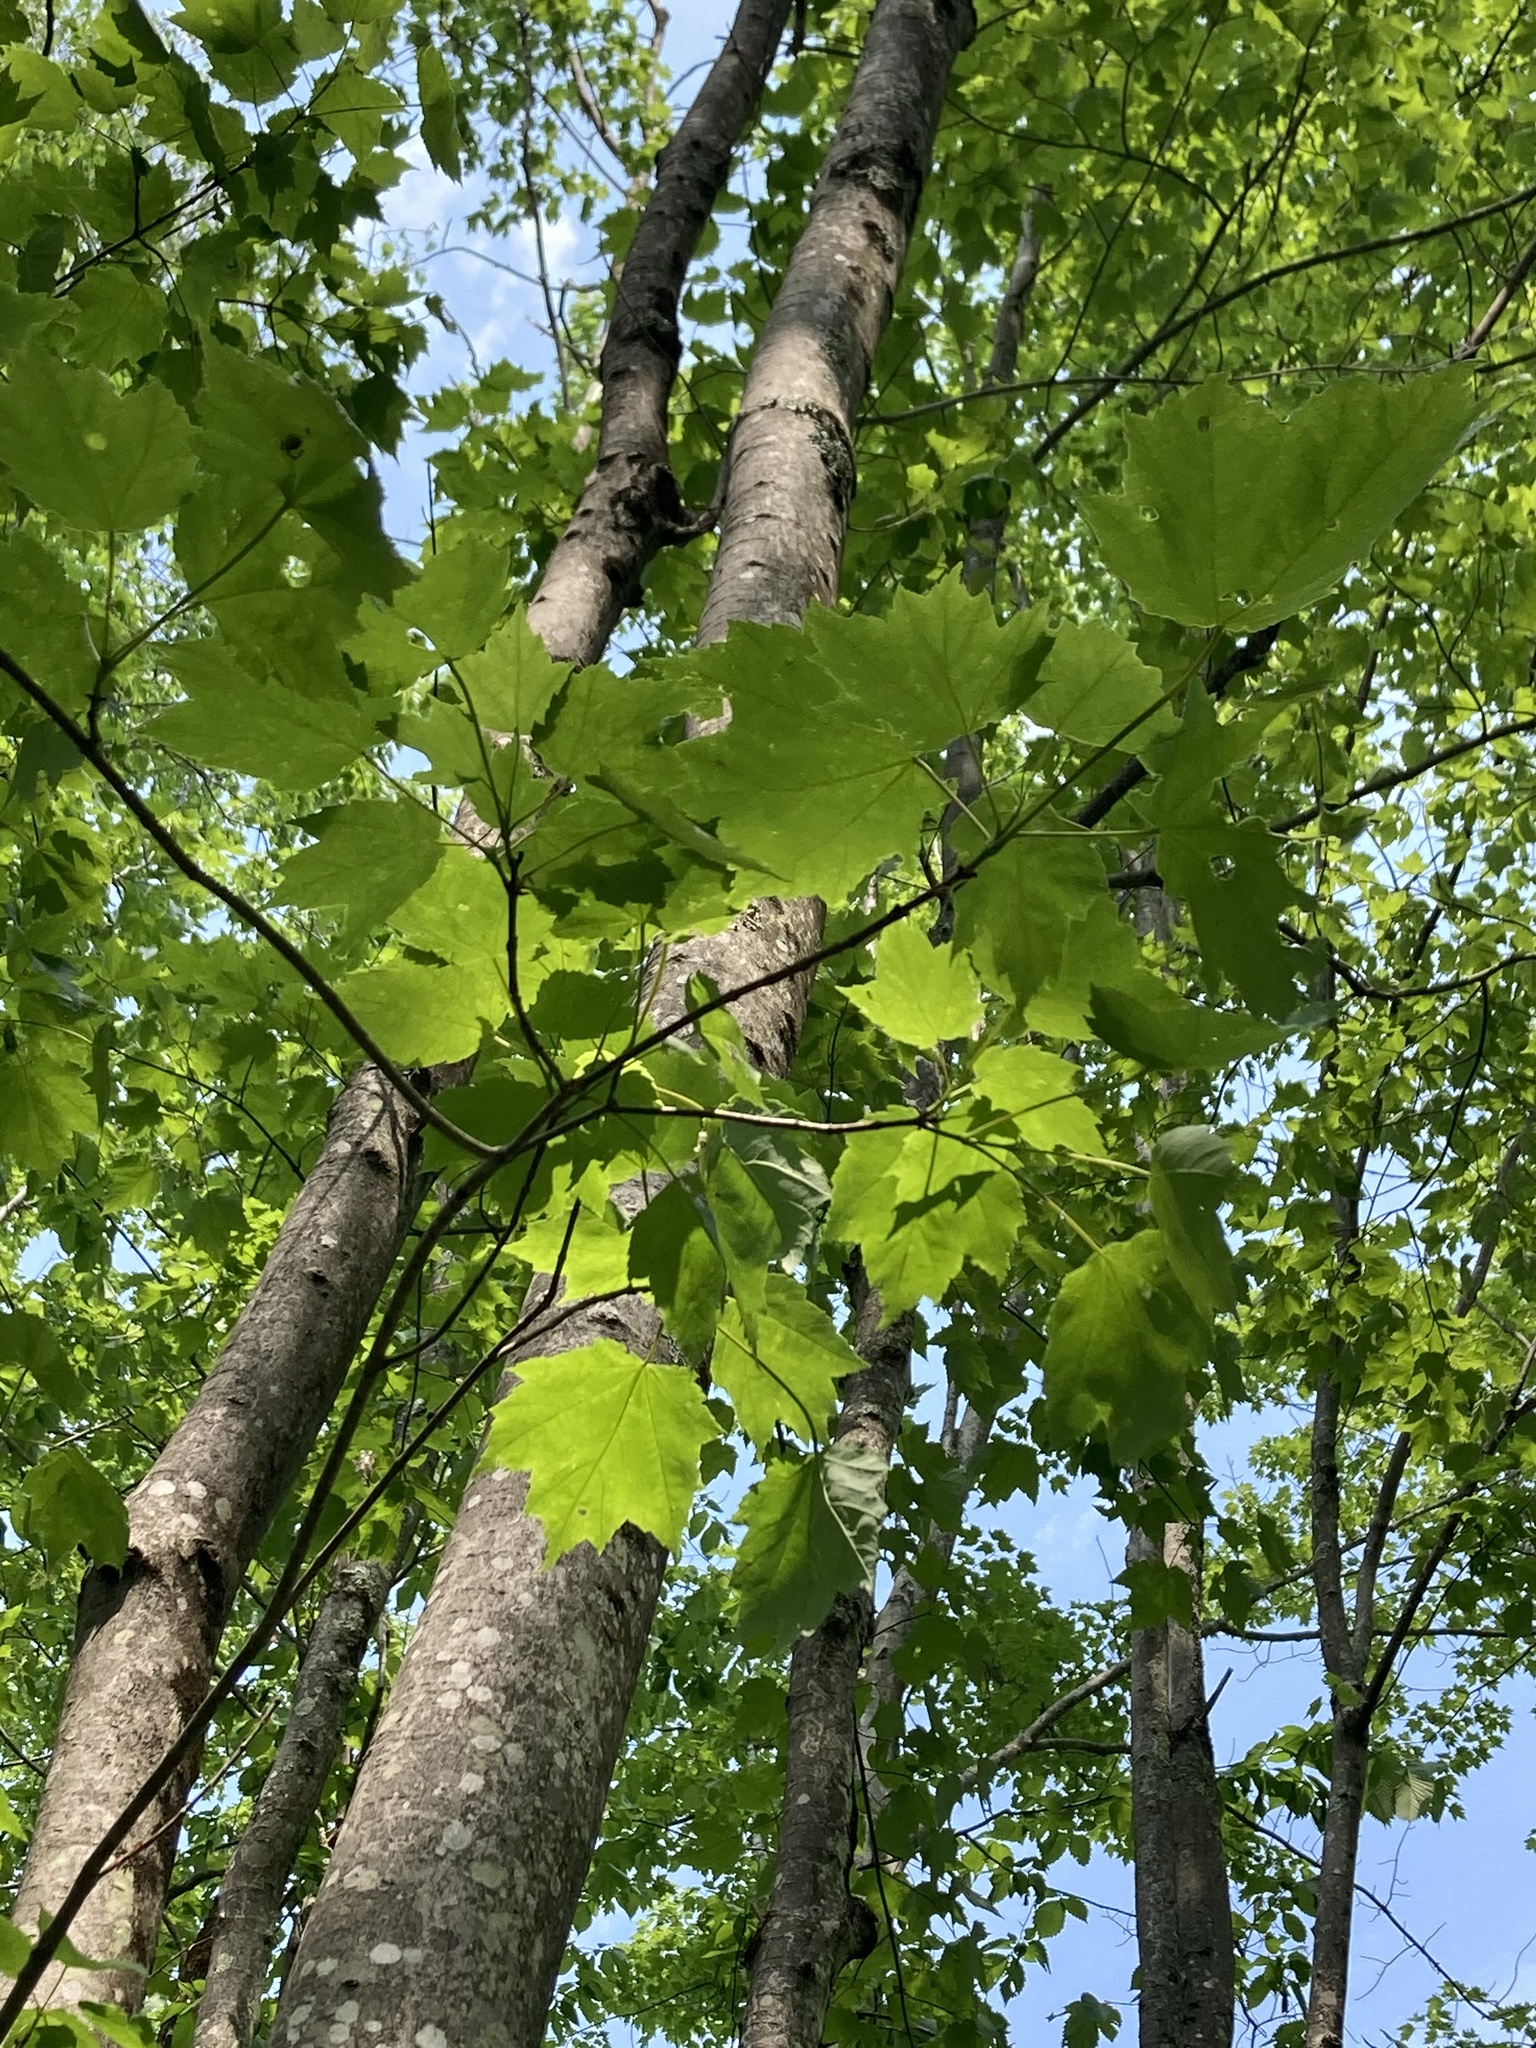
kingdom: Plantae
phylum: Tracheophyta
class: Magnoliopsida
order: Sapindales
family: Sapindaceae
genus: Acer
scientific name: Acer rubrum
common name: Red maple
